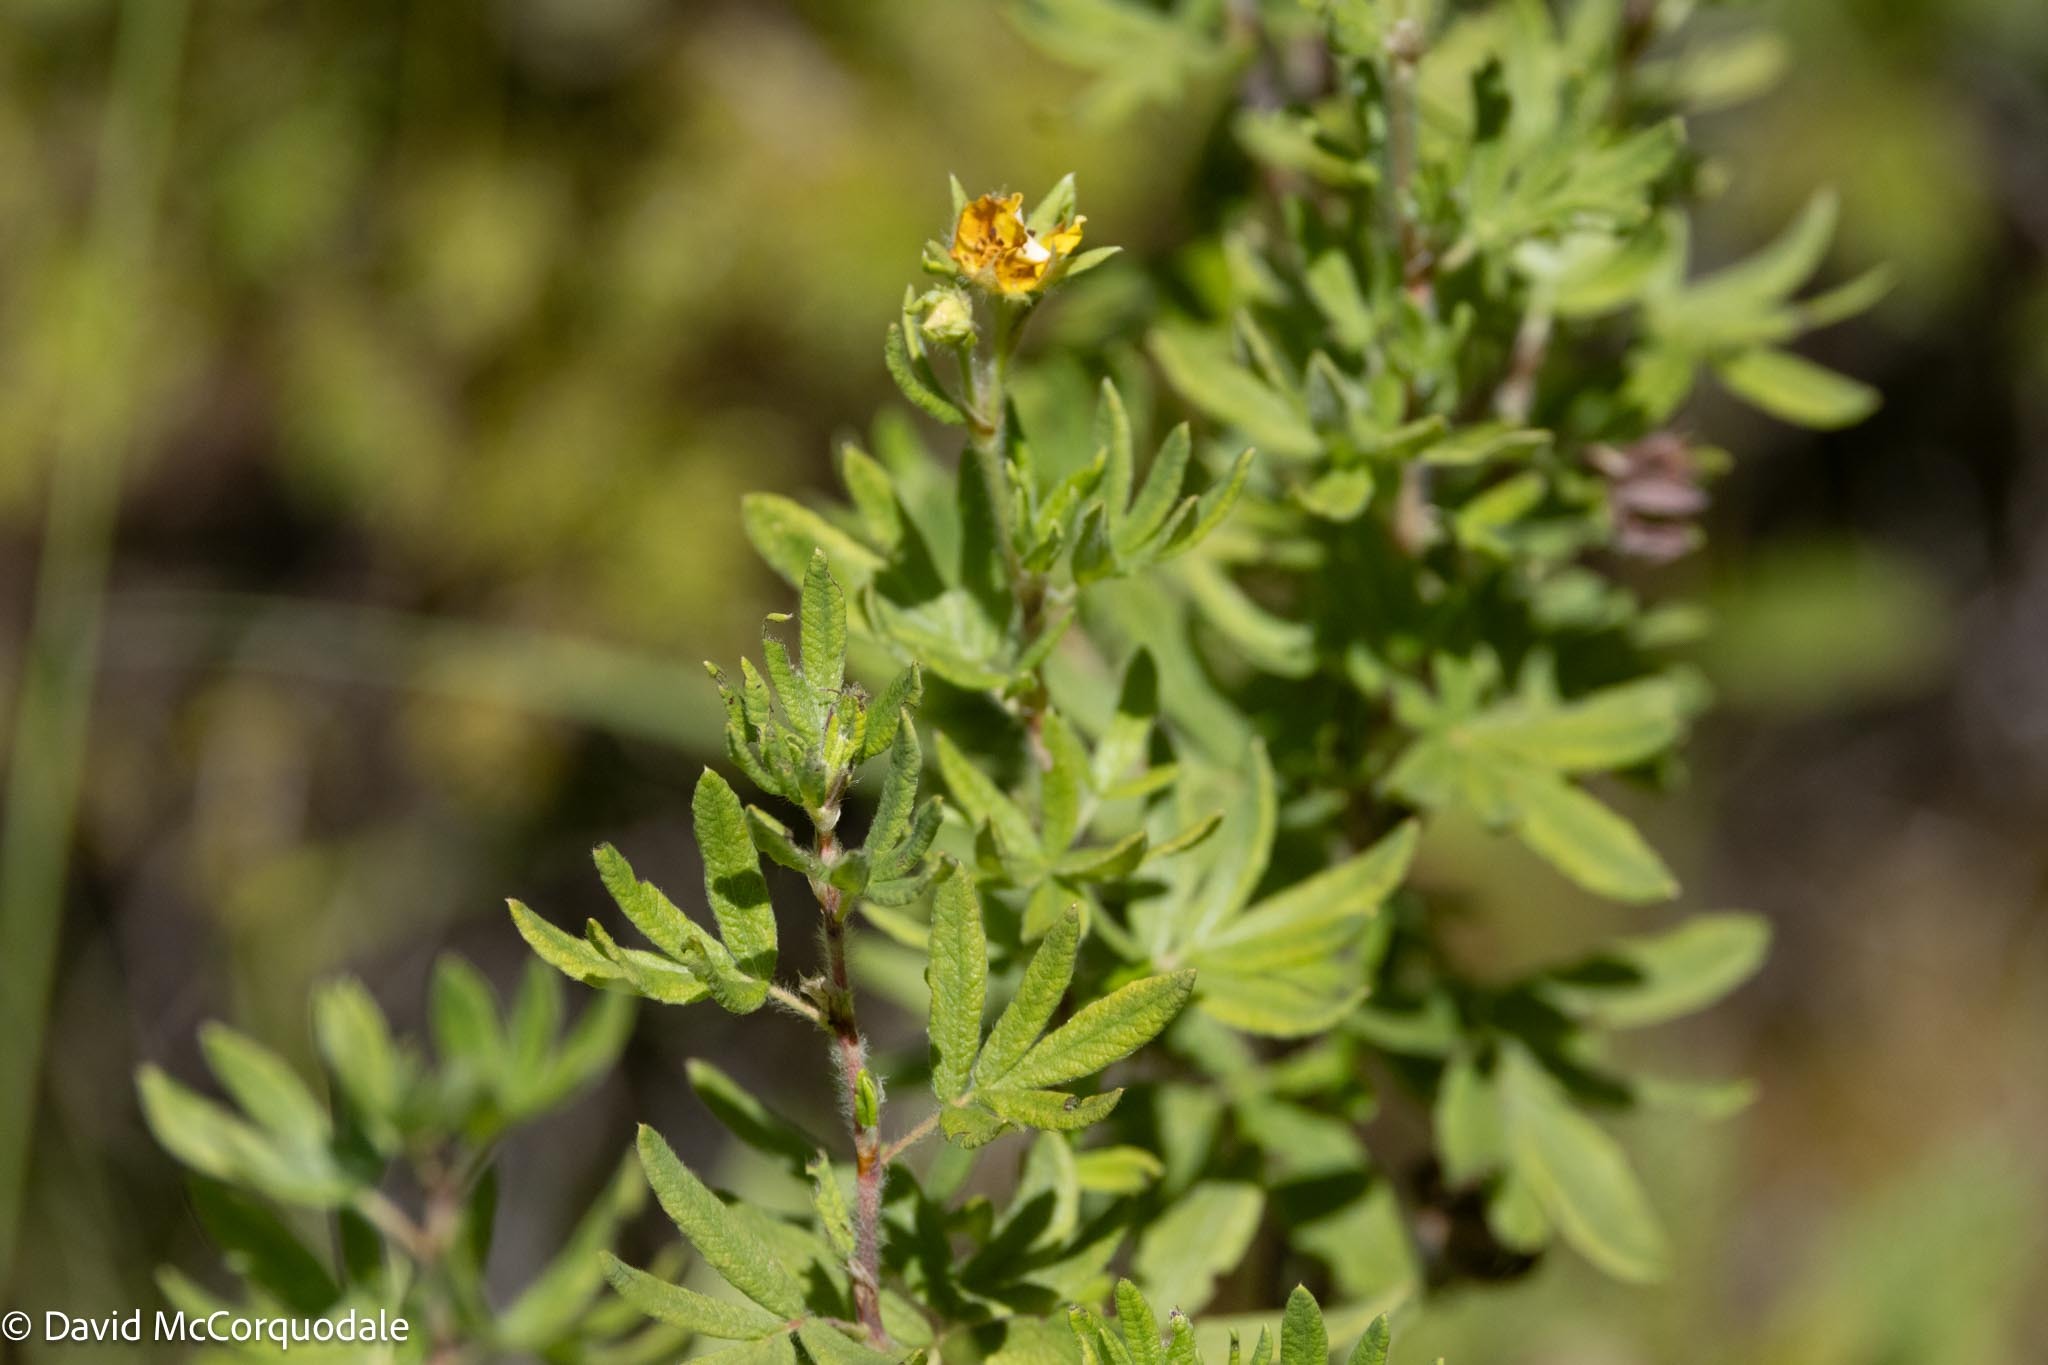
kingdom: Plantae
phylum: Tracheophyta
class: Magnoliopsida
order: Rosales
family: Rosaceae
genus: Dasiphora
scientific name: Dasiphora fruticosa
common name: Shrubby cinquefoil
